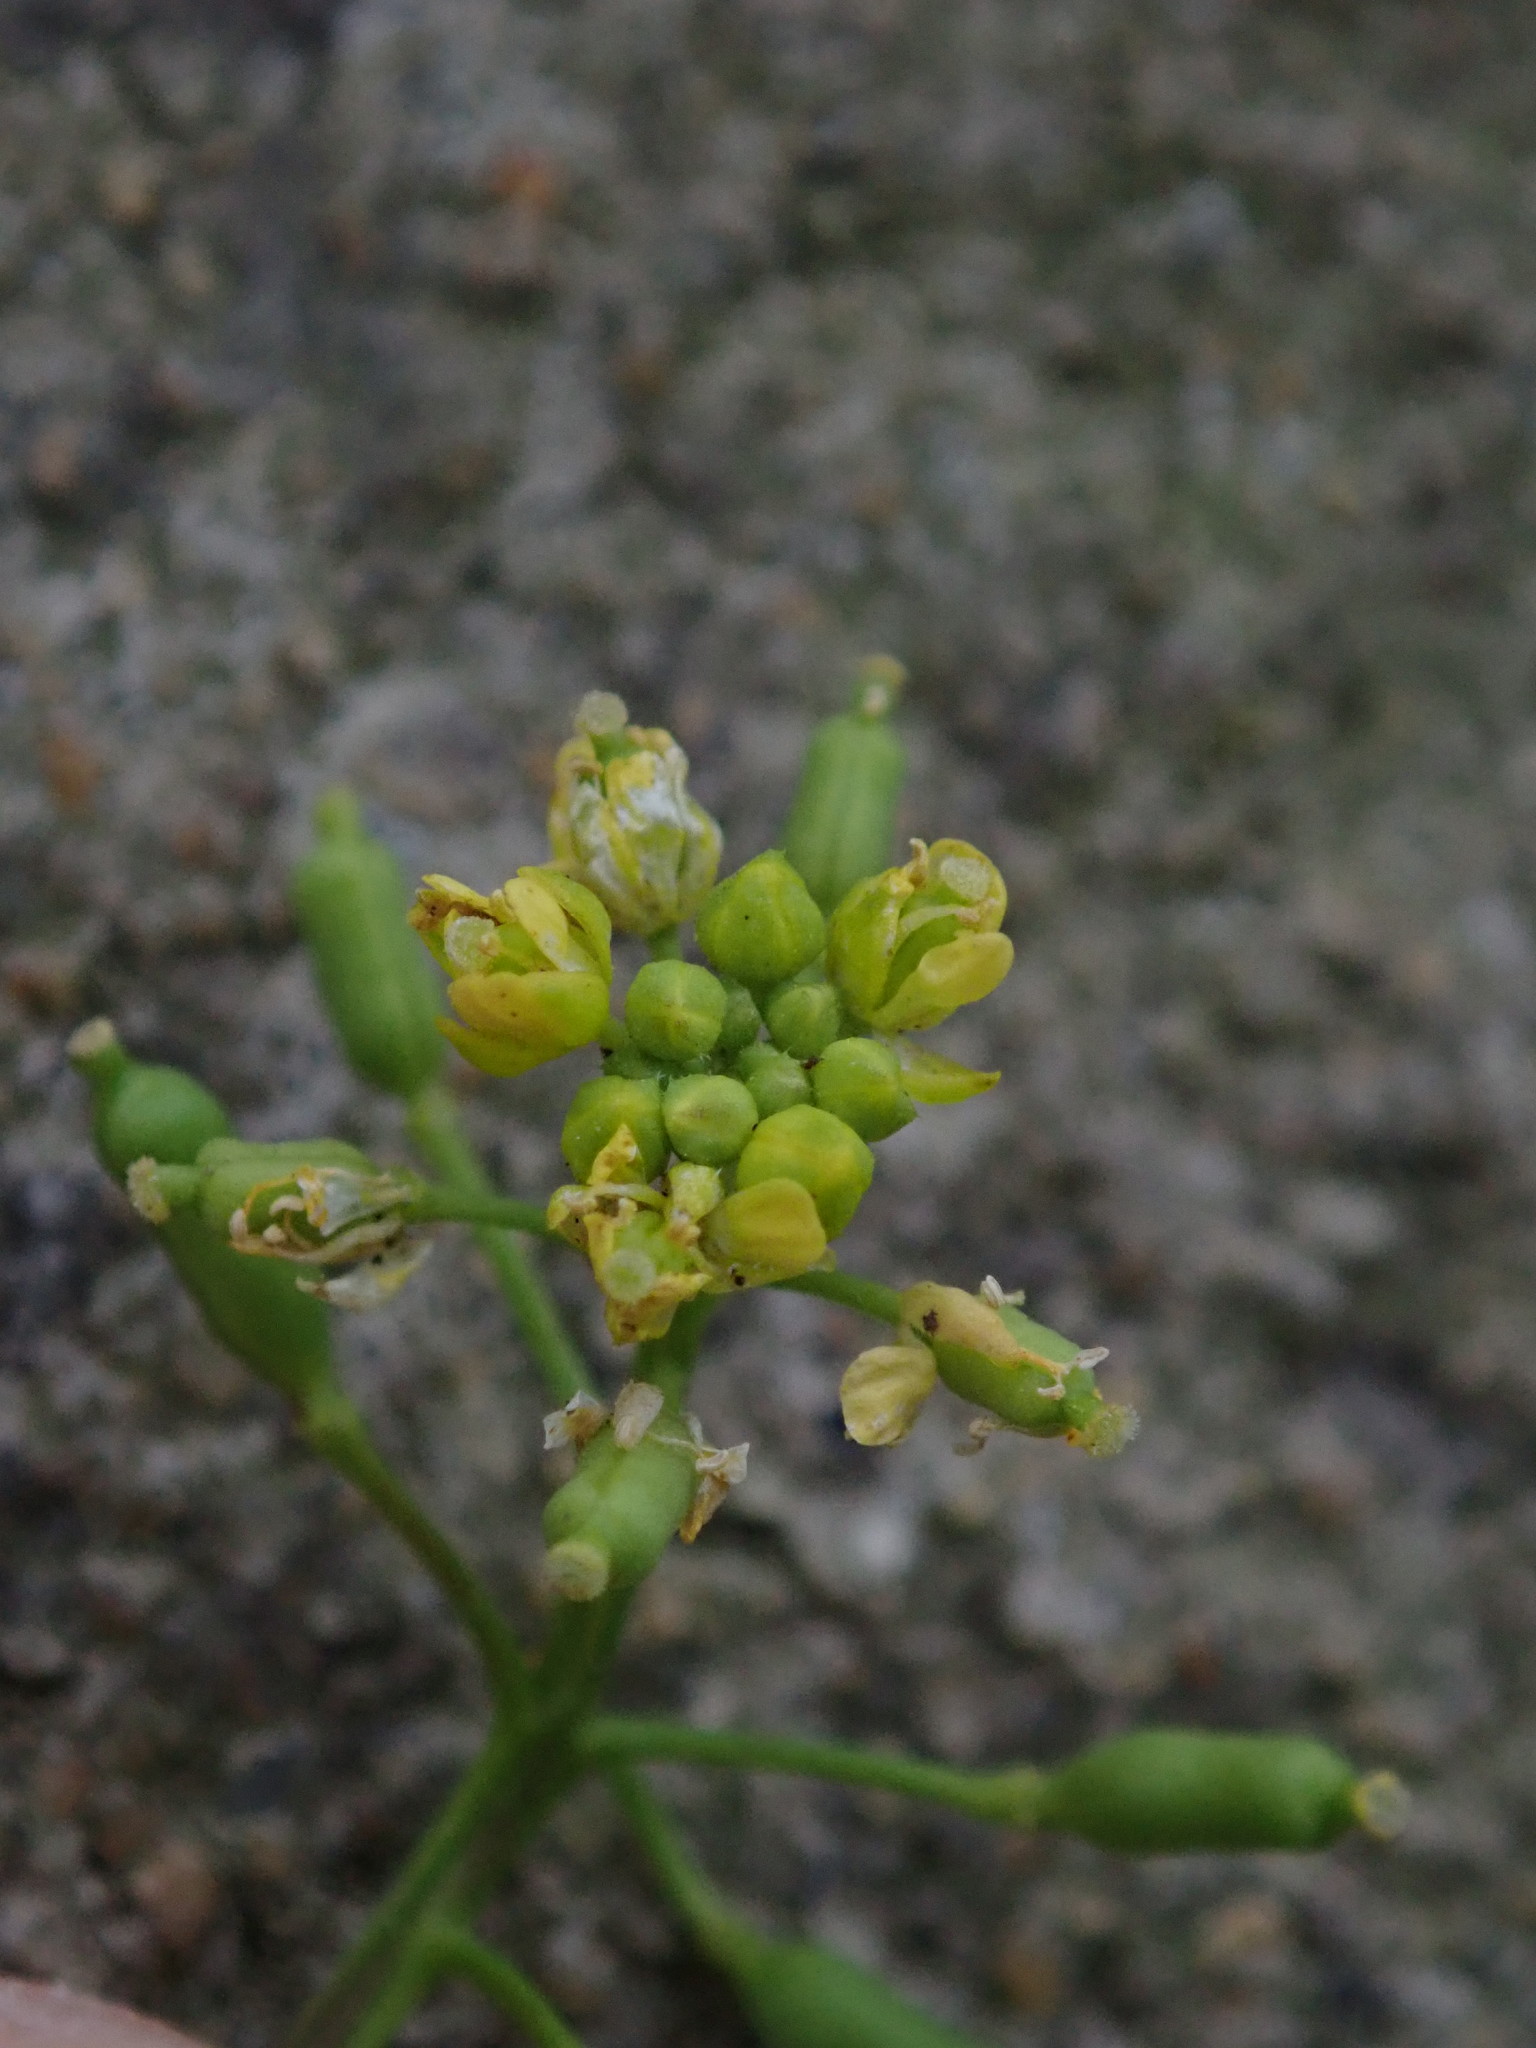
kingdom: Plantae
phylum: Tracheophyta
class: Magnoliopsida
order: Brassicales
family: Brassicaceae
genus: Rorippa
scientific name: Rorippa palustris
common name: Marsh yellow-cress
